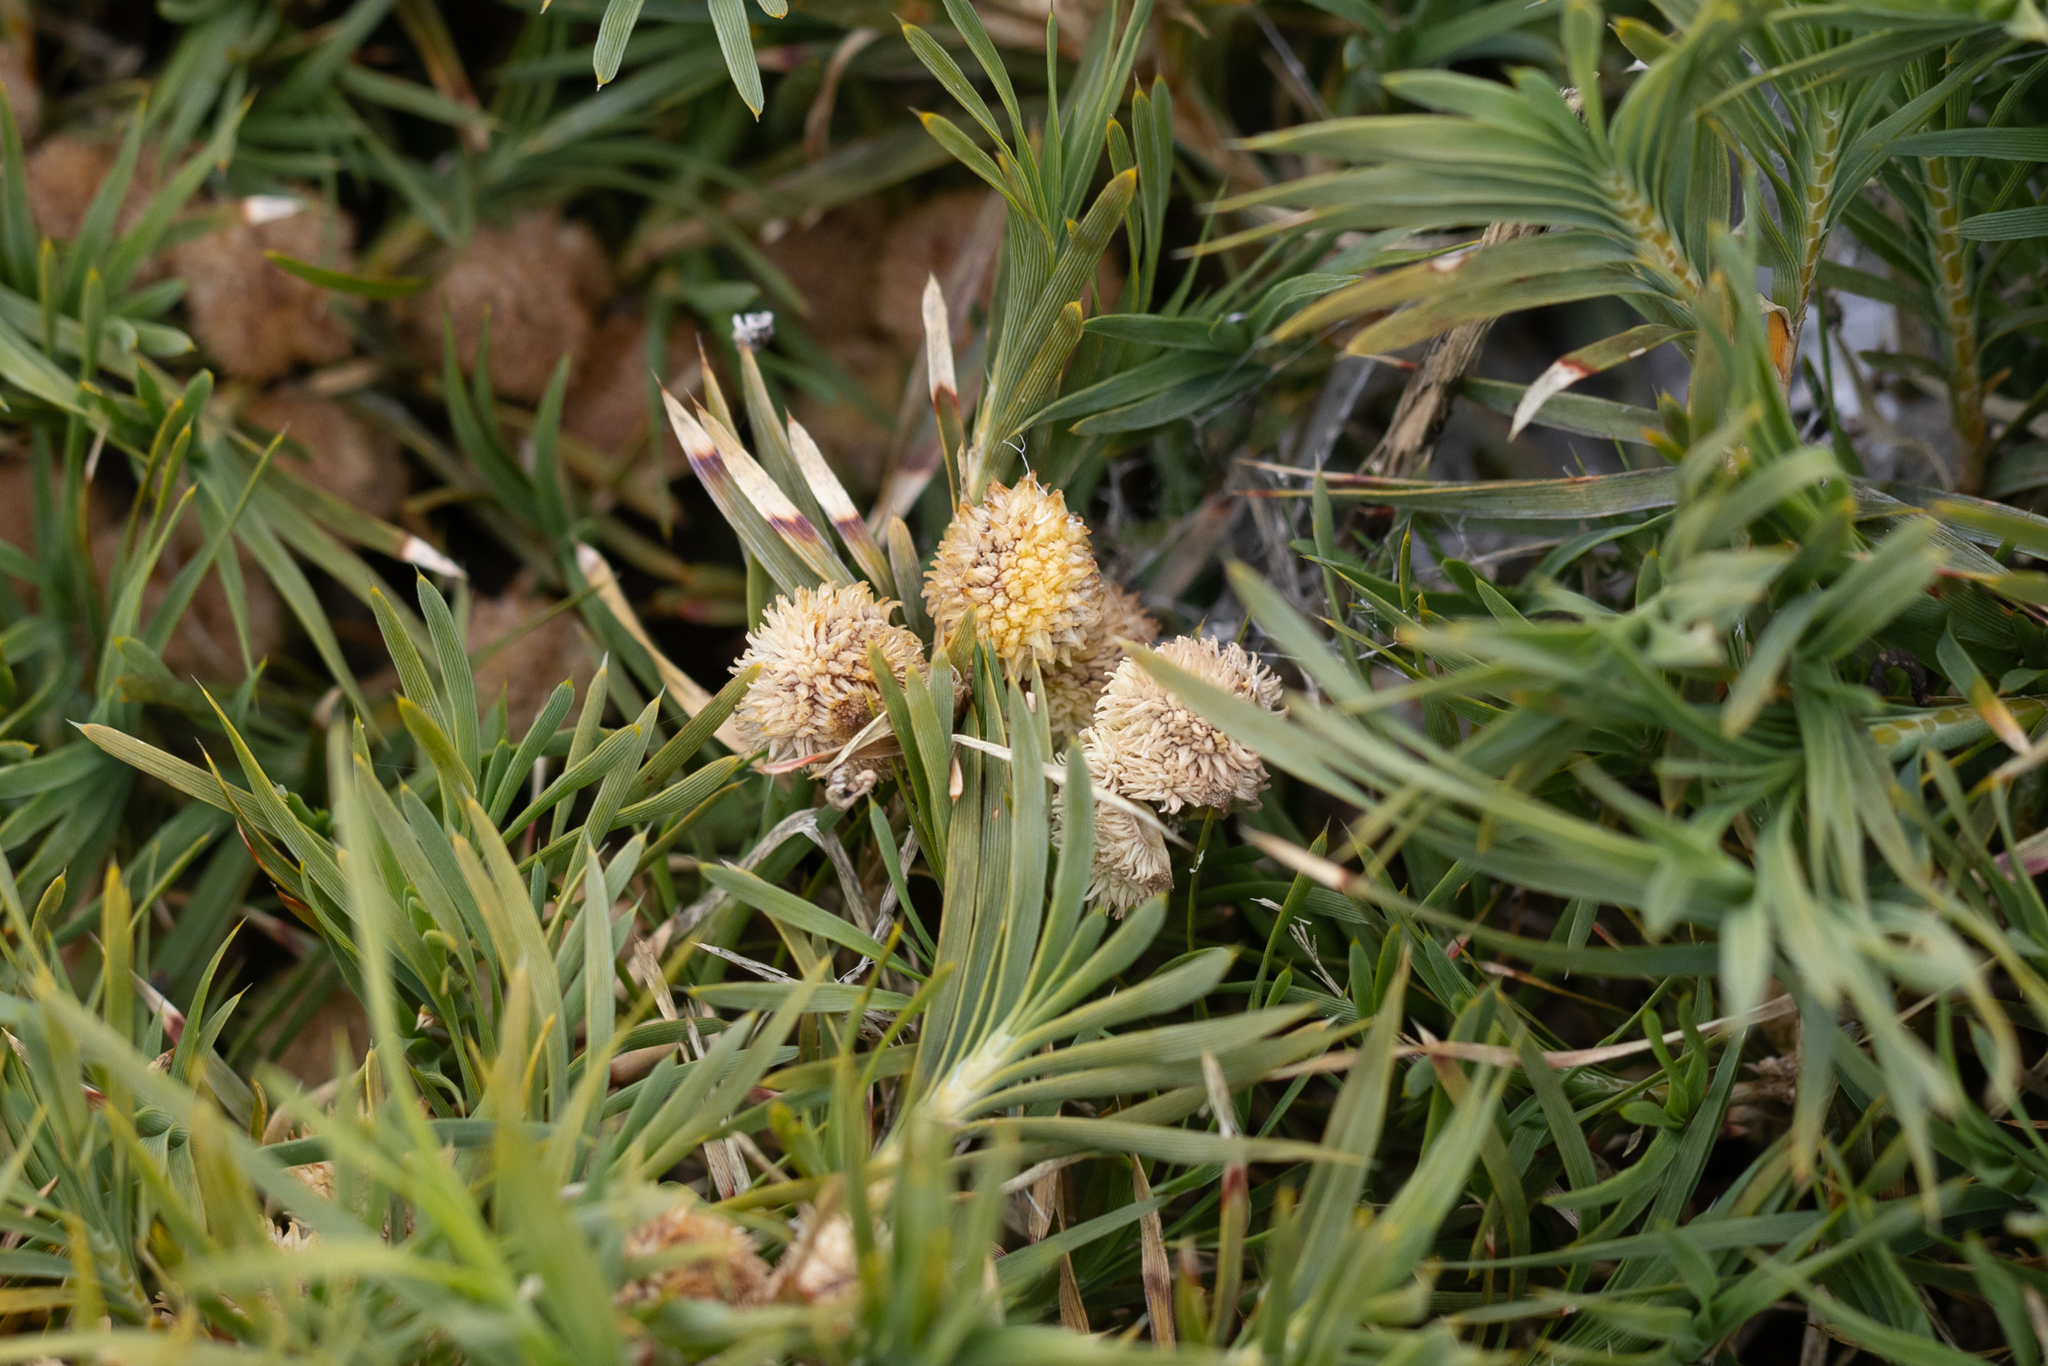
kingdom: Plantae
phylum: Tracheophyta
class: Liliopsida
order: Asparagales
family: Asparagaceae
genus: Acanthocarpus
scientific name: Acanthocarpus preissii
